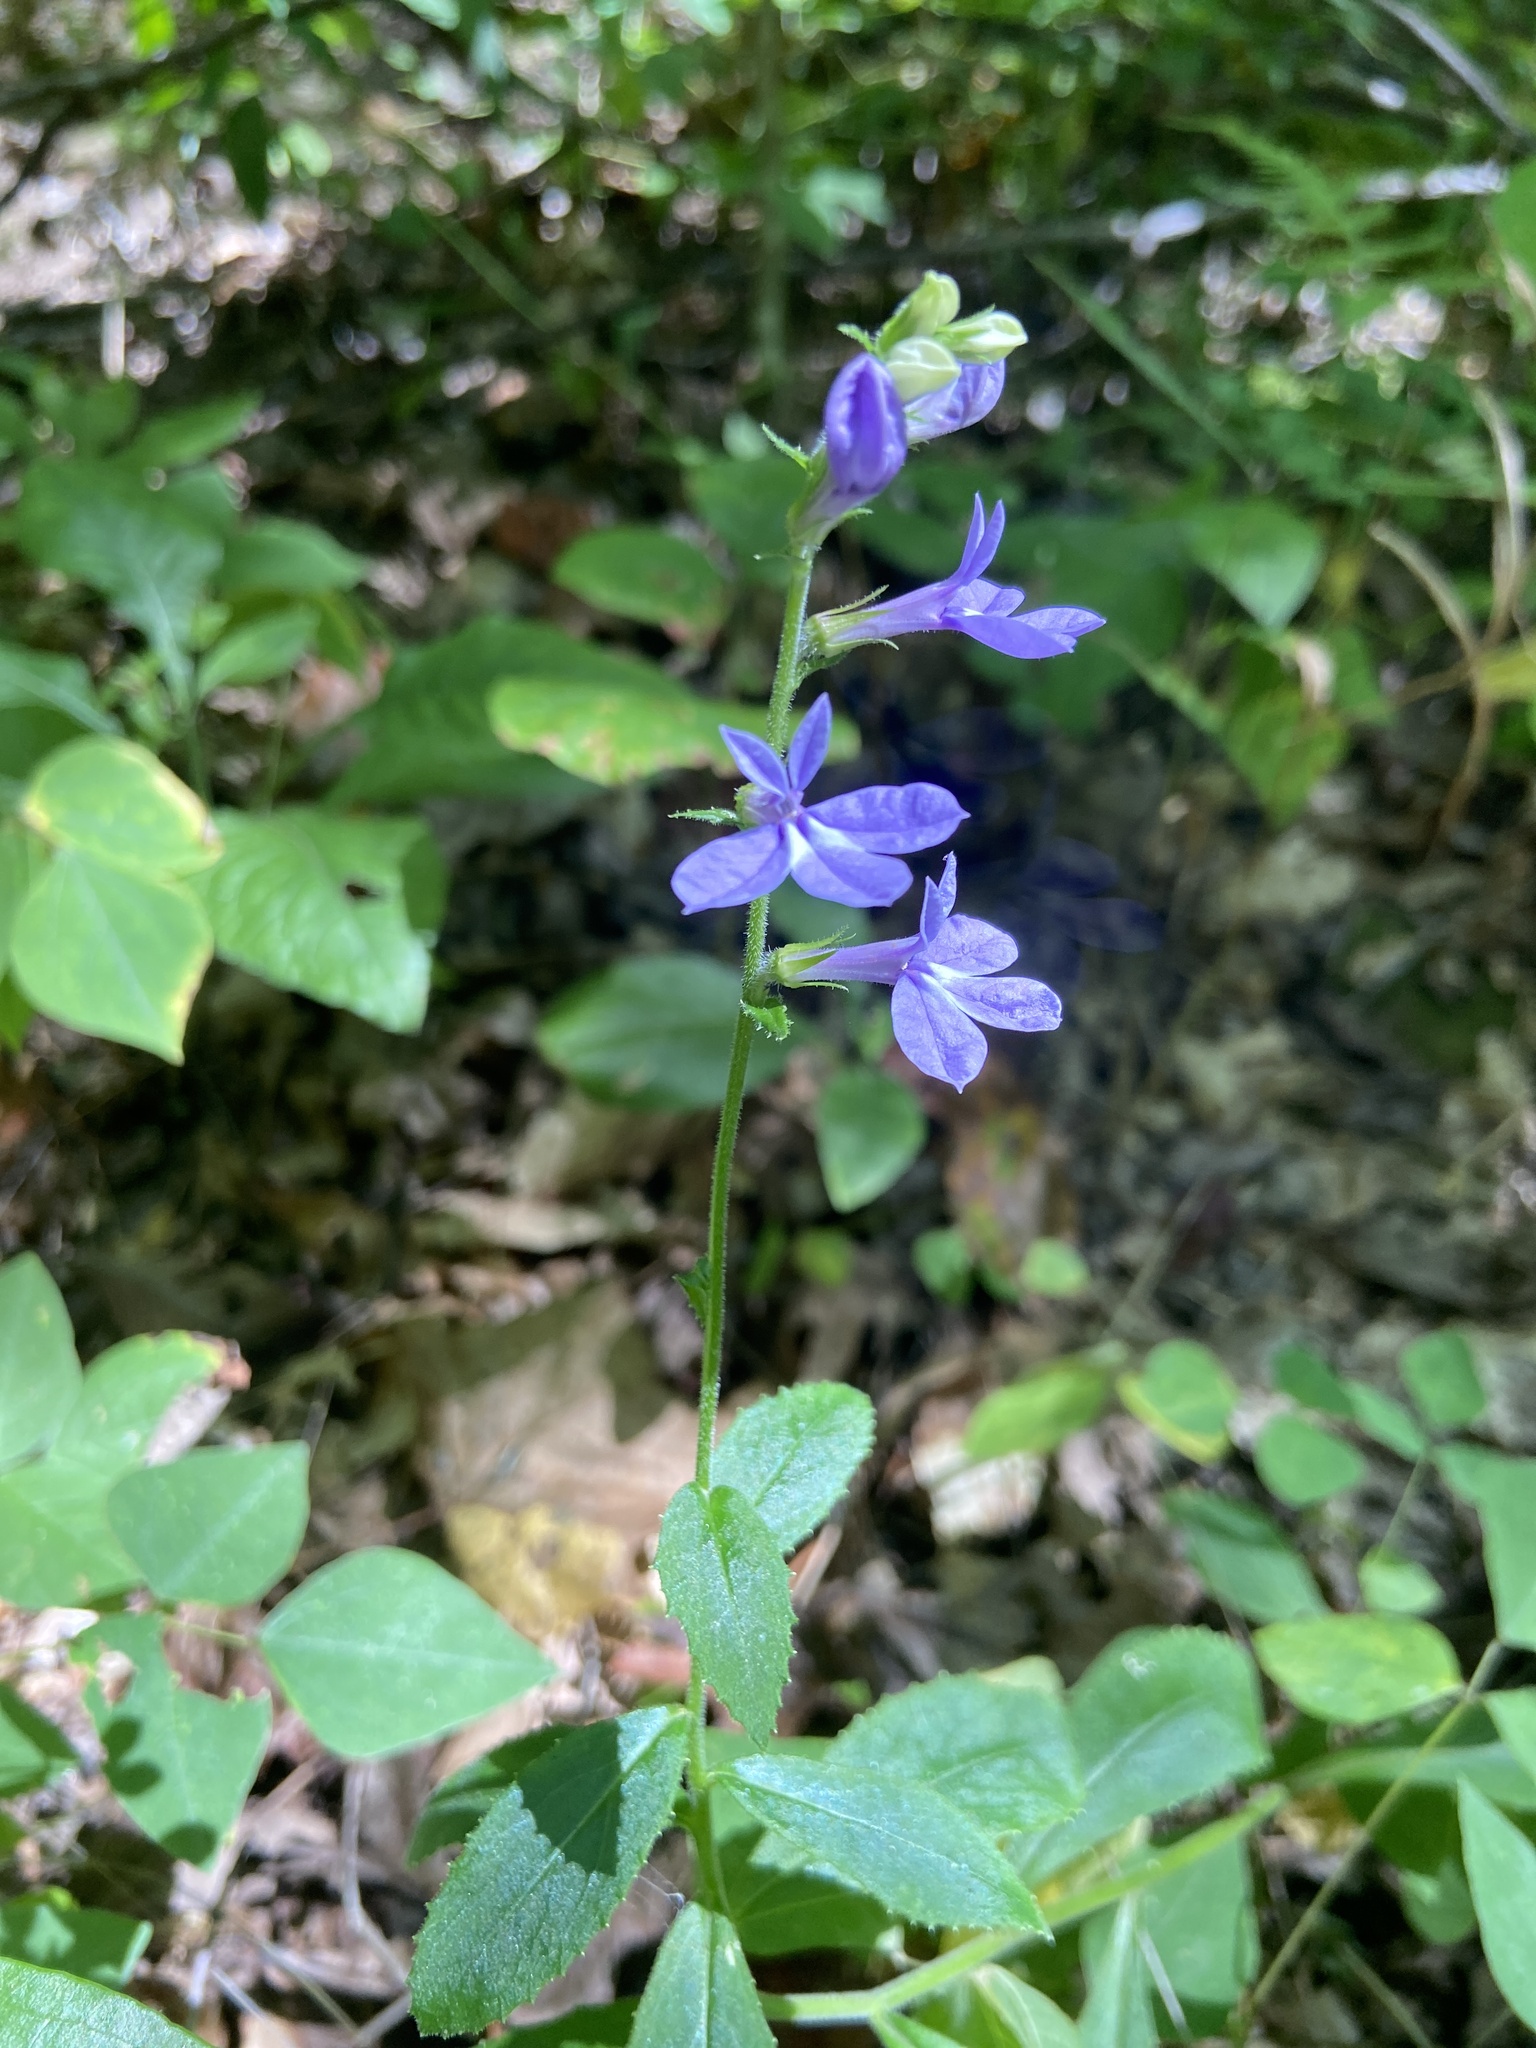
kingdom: Plantae
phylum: Tracheophyta
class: Magnoliopsida
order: Asterales
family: Campanulaceae
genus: Lobelia
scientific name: Lobelia puberula
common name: Purple dewdrop
